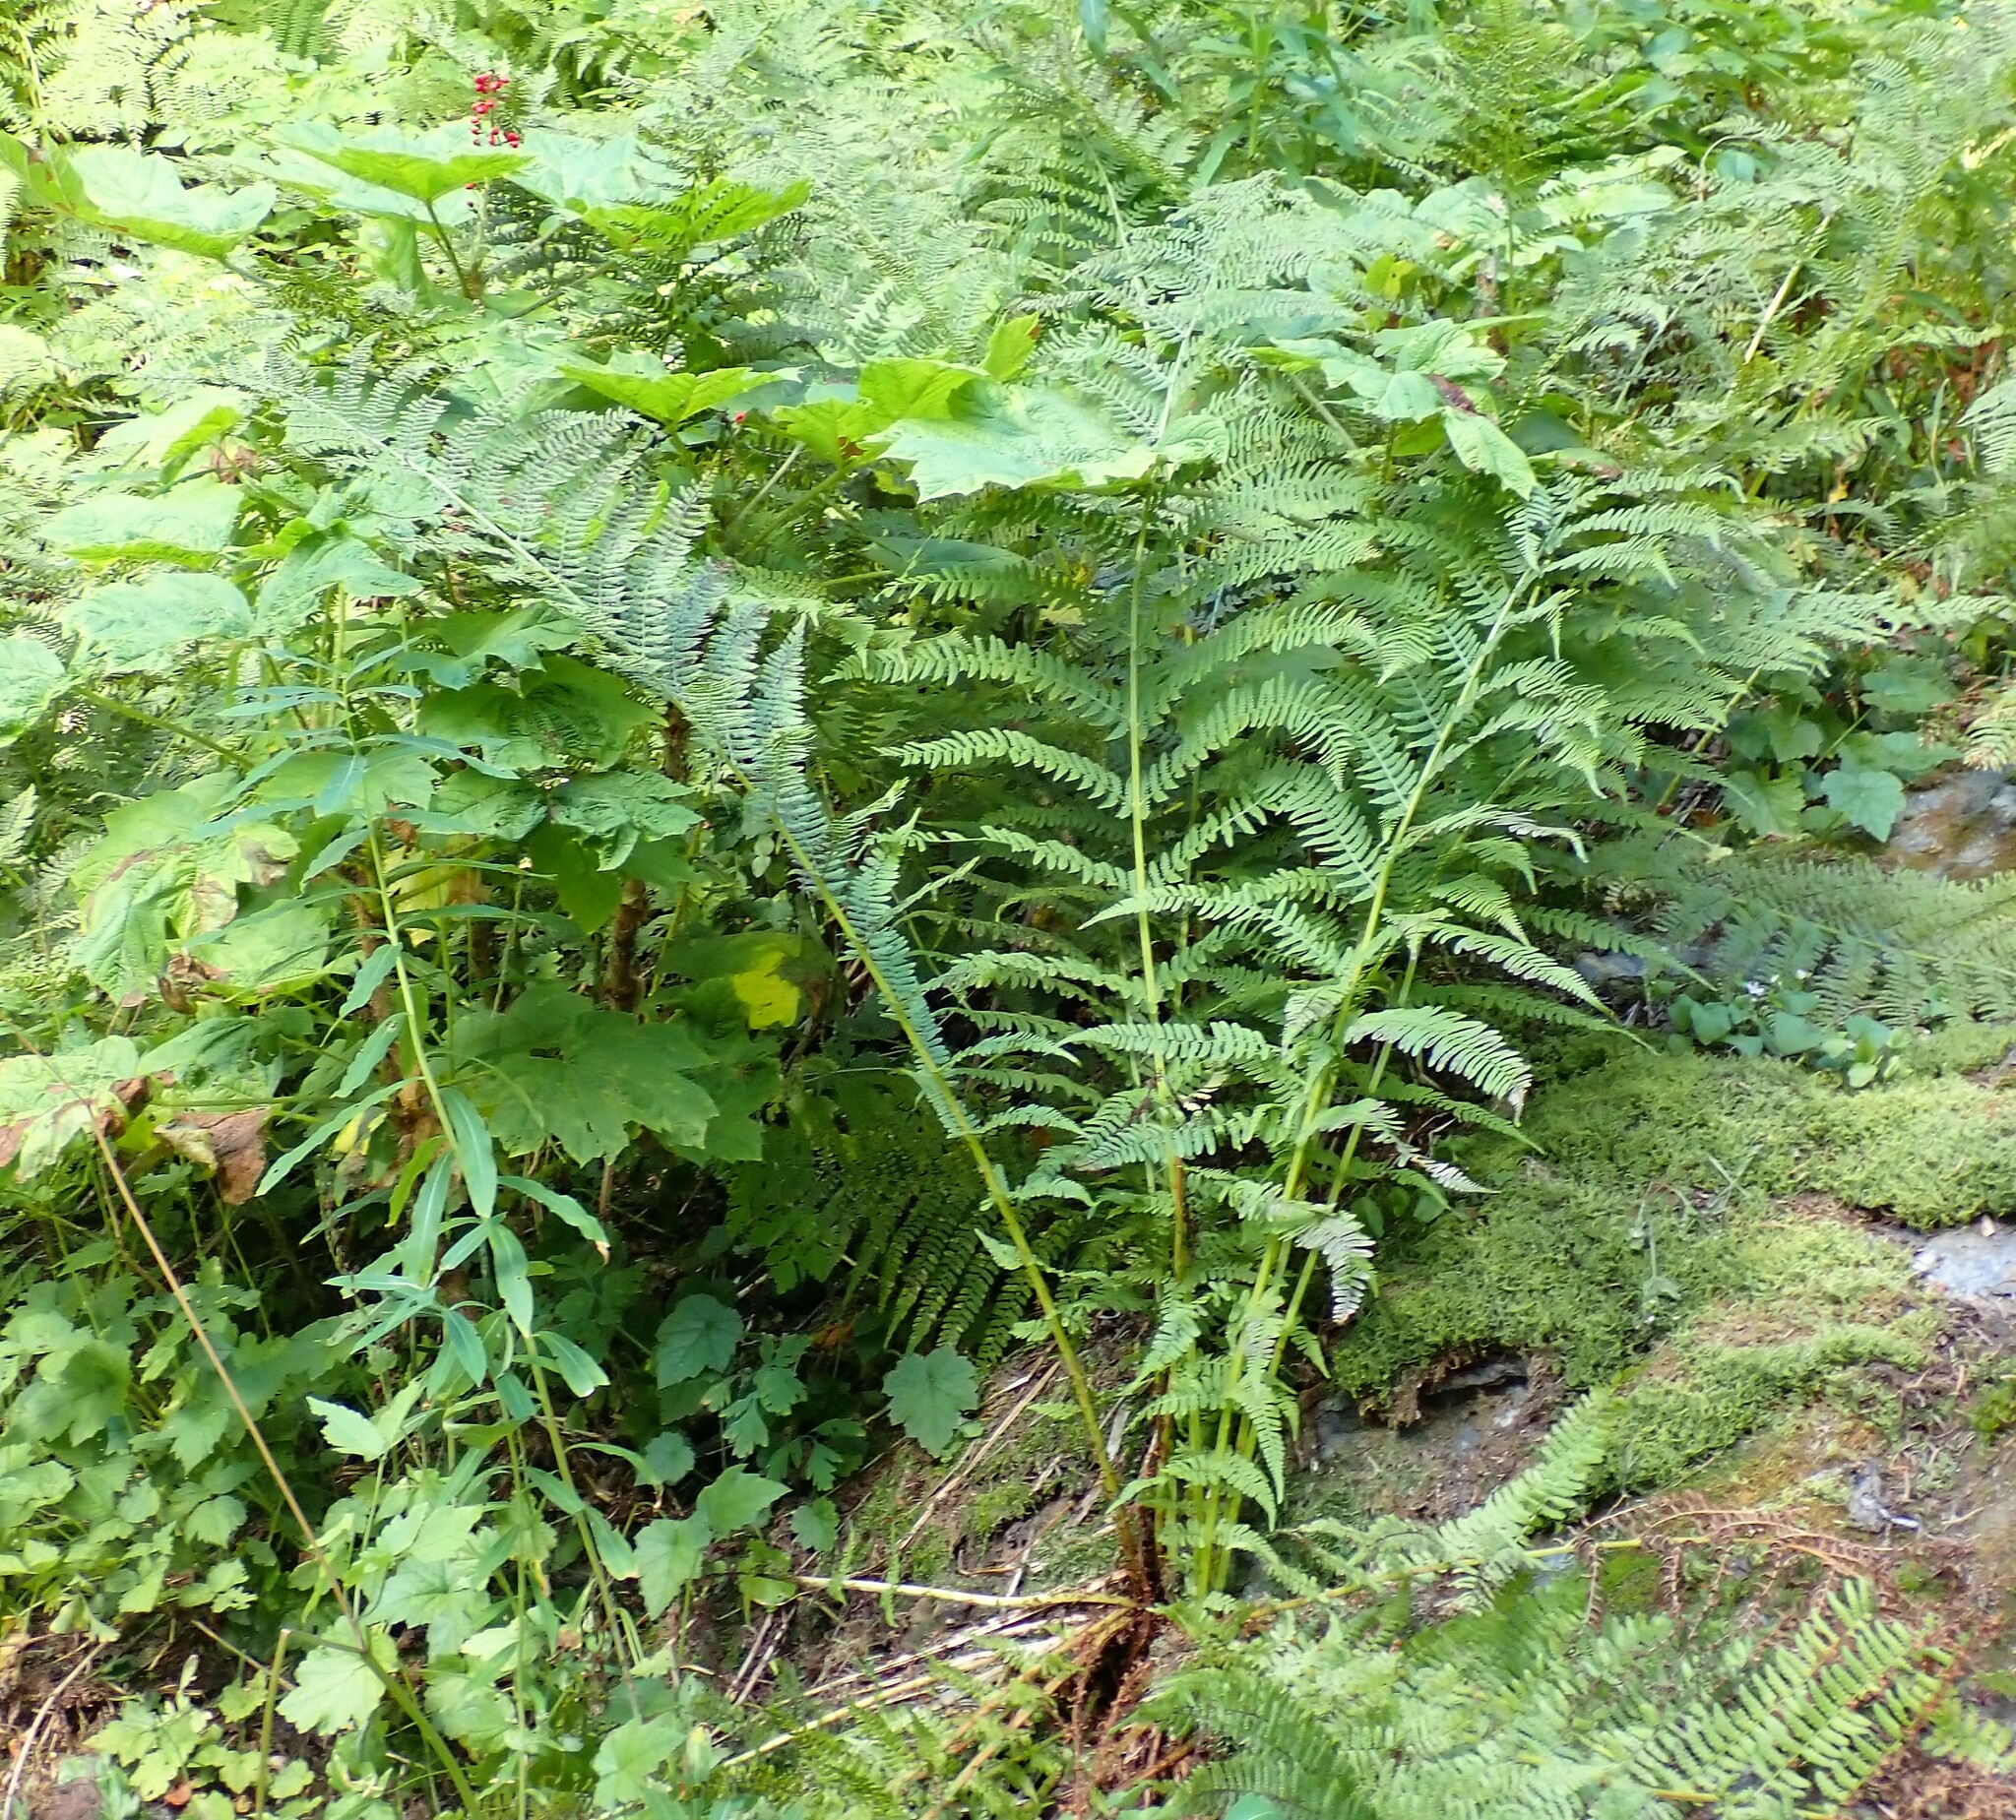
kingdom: Plantae
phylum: Tracheophyta
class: Polypodiopsida
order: Polypodiales
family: Athyriaceae
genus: Athyrium
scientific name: Athyrium filix-femina
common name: Lady fern
